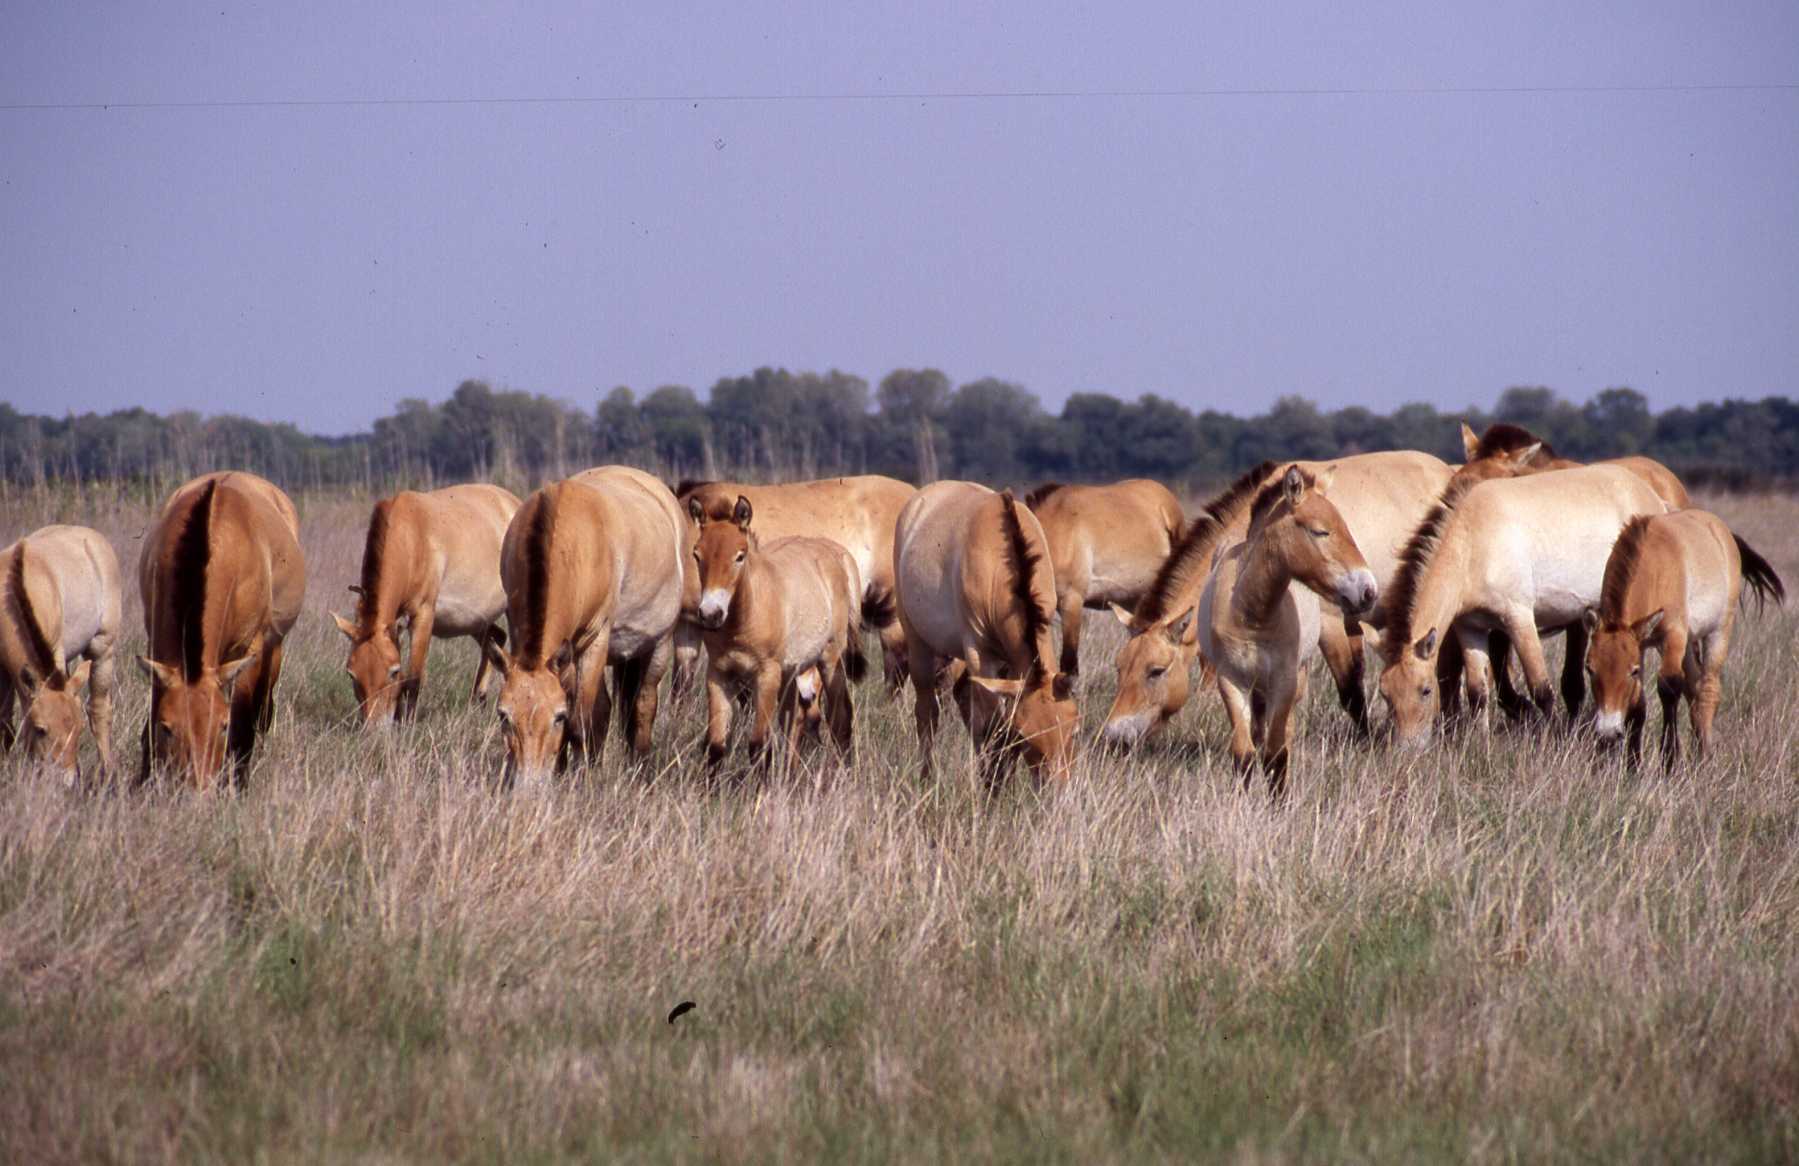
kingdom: Animalia
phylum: Chordata
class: Mammalia
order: Perissodactyla
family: Equidae
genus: Equus
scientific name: Equus przewalskii
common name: Przewalski's horse
